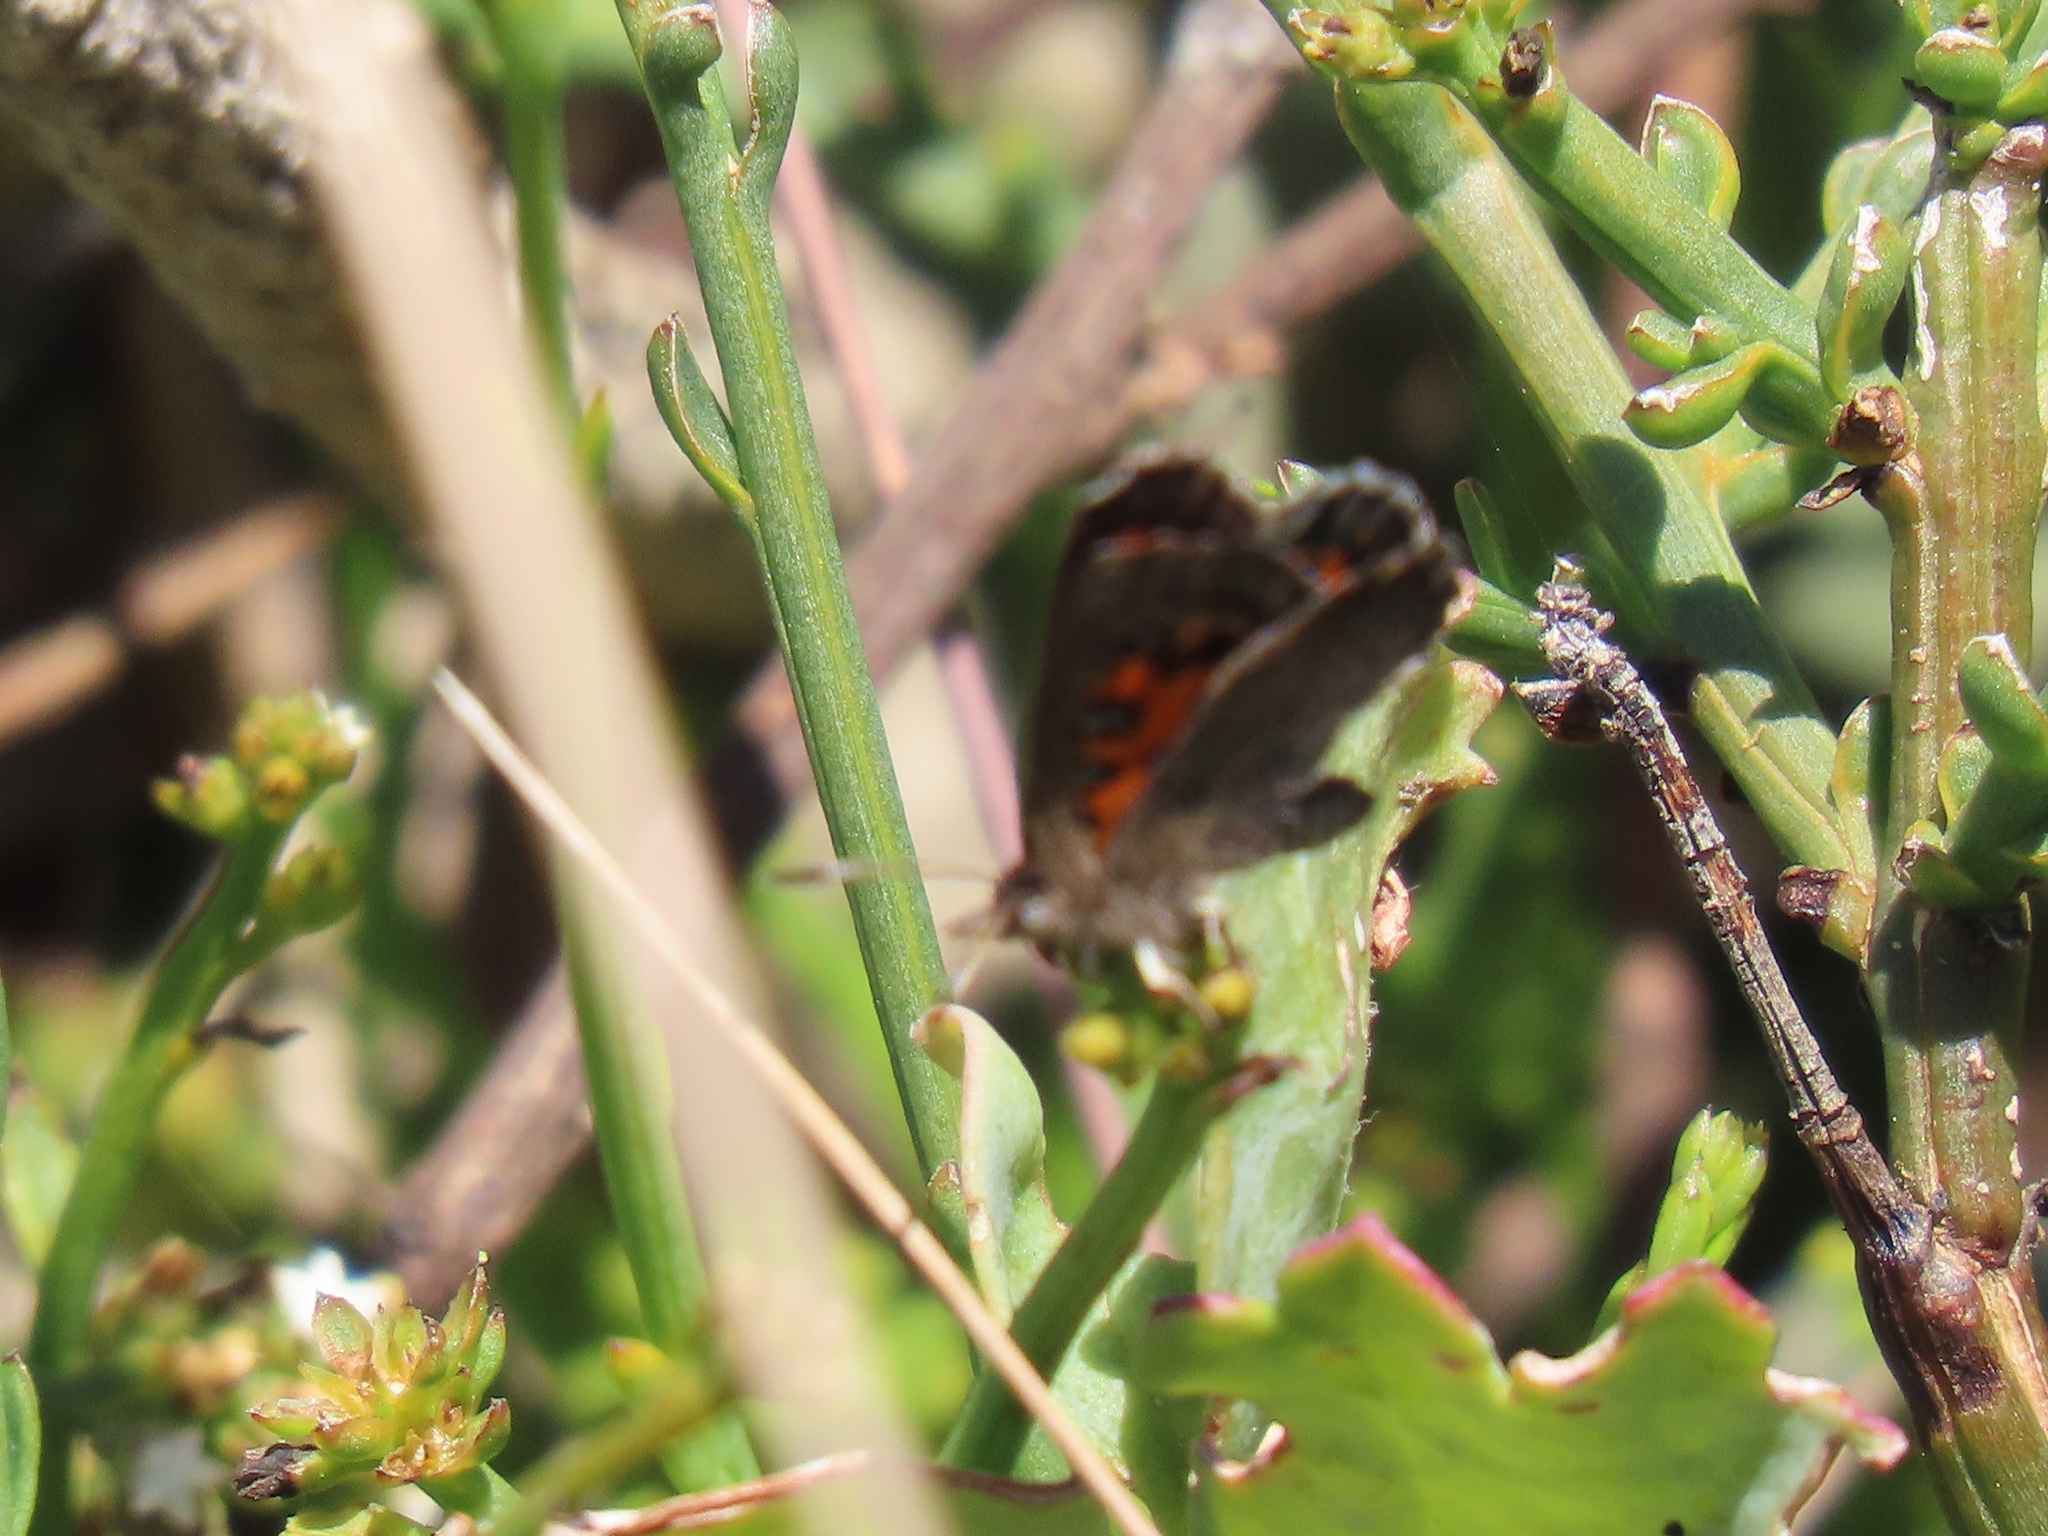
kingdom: Animalia
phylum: Arthropoda
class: Insecta
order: Lepidoptera
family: Lycaenidae
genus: Chrysoritis
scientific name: Chrysoritis zonarius
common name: Donkey daisy copper
